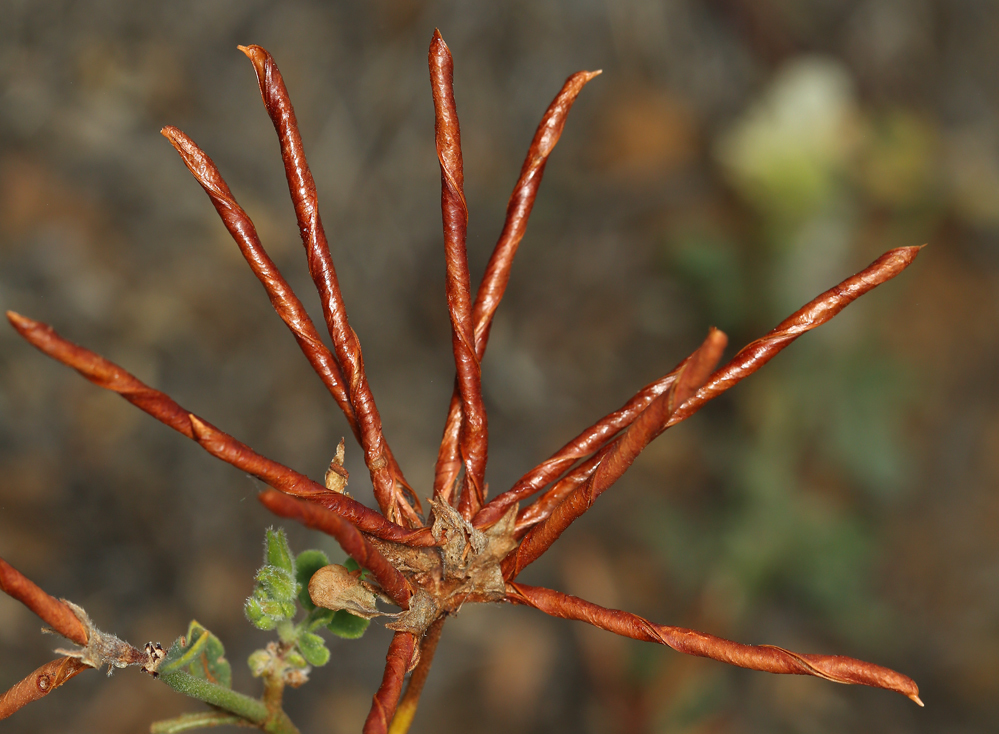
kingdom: Plantae
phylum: Tracheophyta
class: Magnoliopsida
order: Fabales
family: Fabaceae
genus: Acmispon
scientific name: Acmispon grandiflorus
